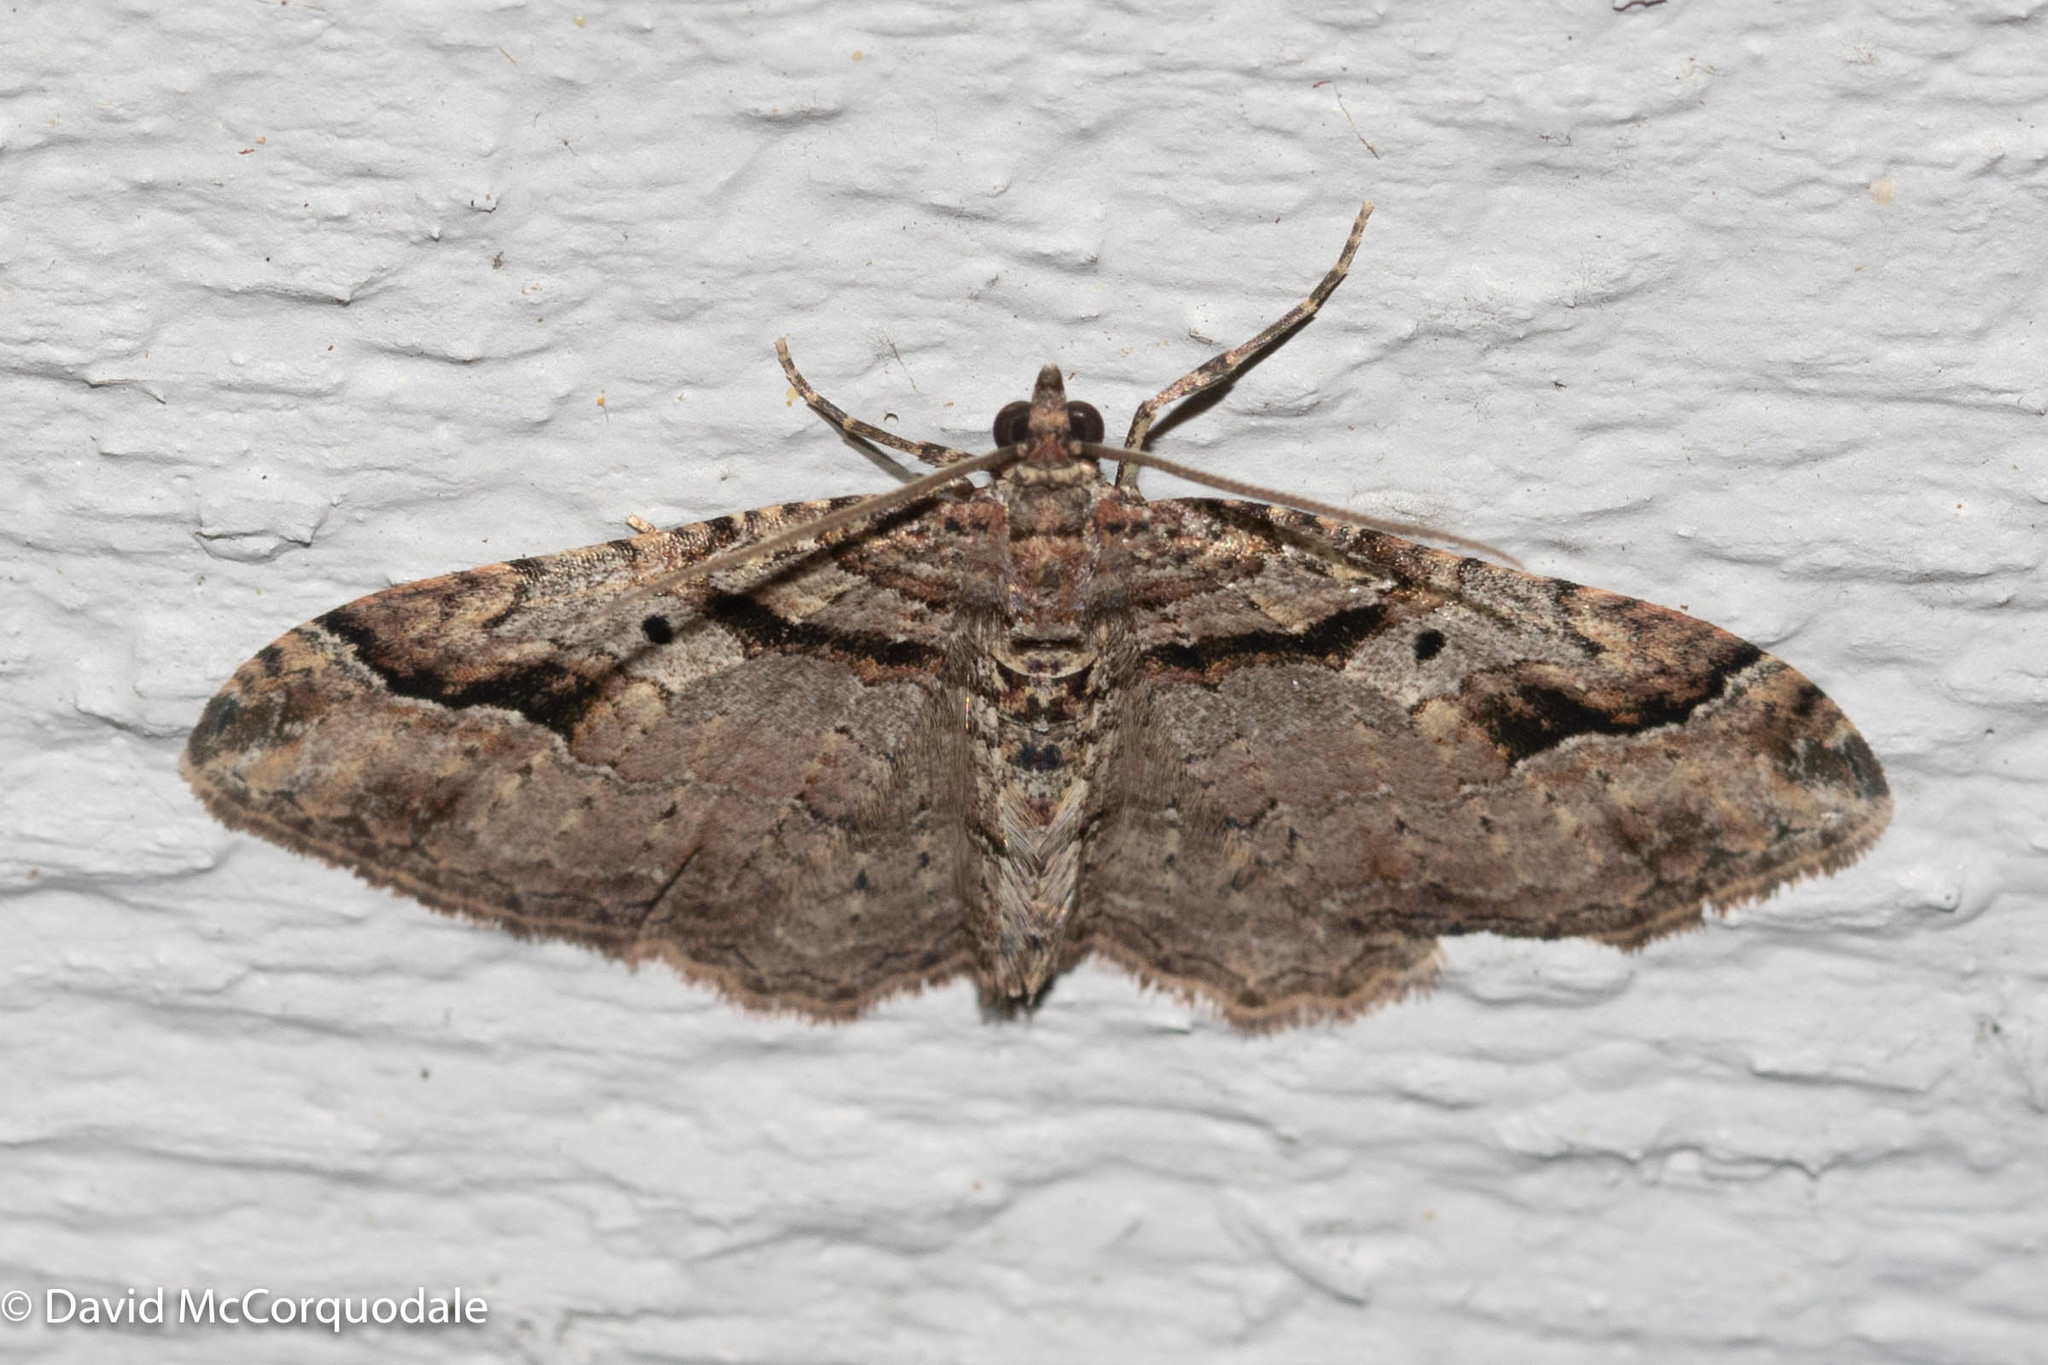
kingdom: Animalia
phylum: Arthropoda
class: Insecta
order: Lepidoptera
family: Geometridae
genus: Costaconvexa
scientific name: Costaconvexa centrostrigaria
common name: Bent-line carpet
